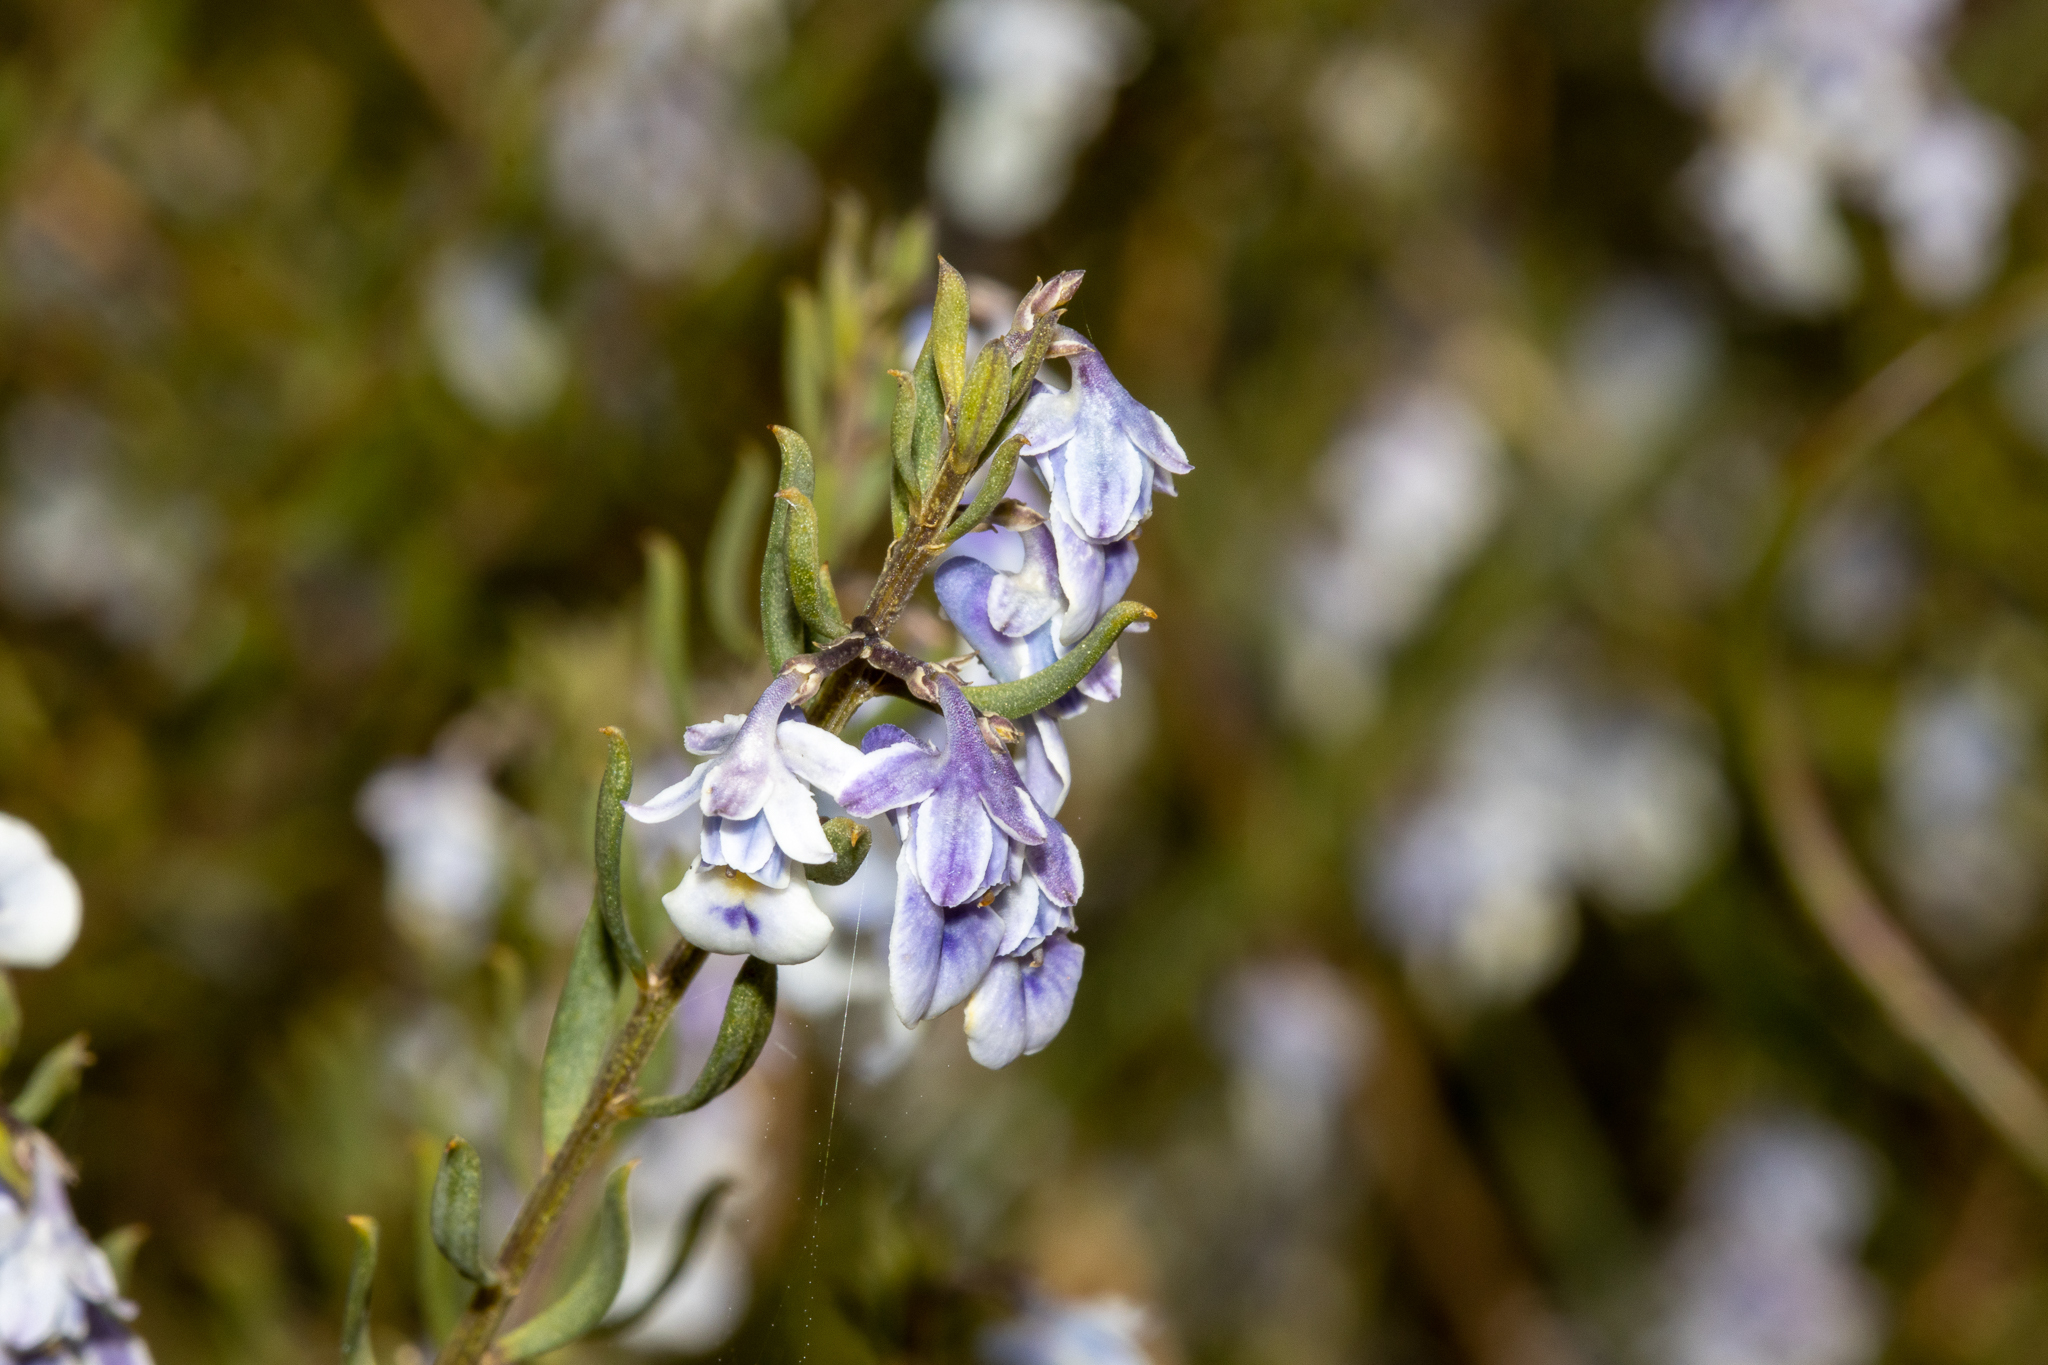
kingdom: Plantae
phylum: Tracheophyta
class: Magnoliopsida
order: Malpighiales
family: Violaceae
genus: Pigea
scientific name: Pigea floribunda
